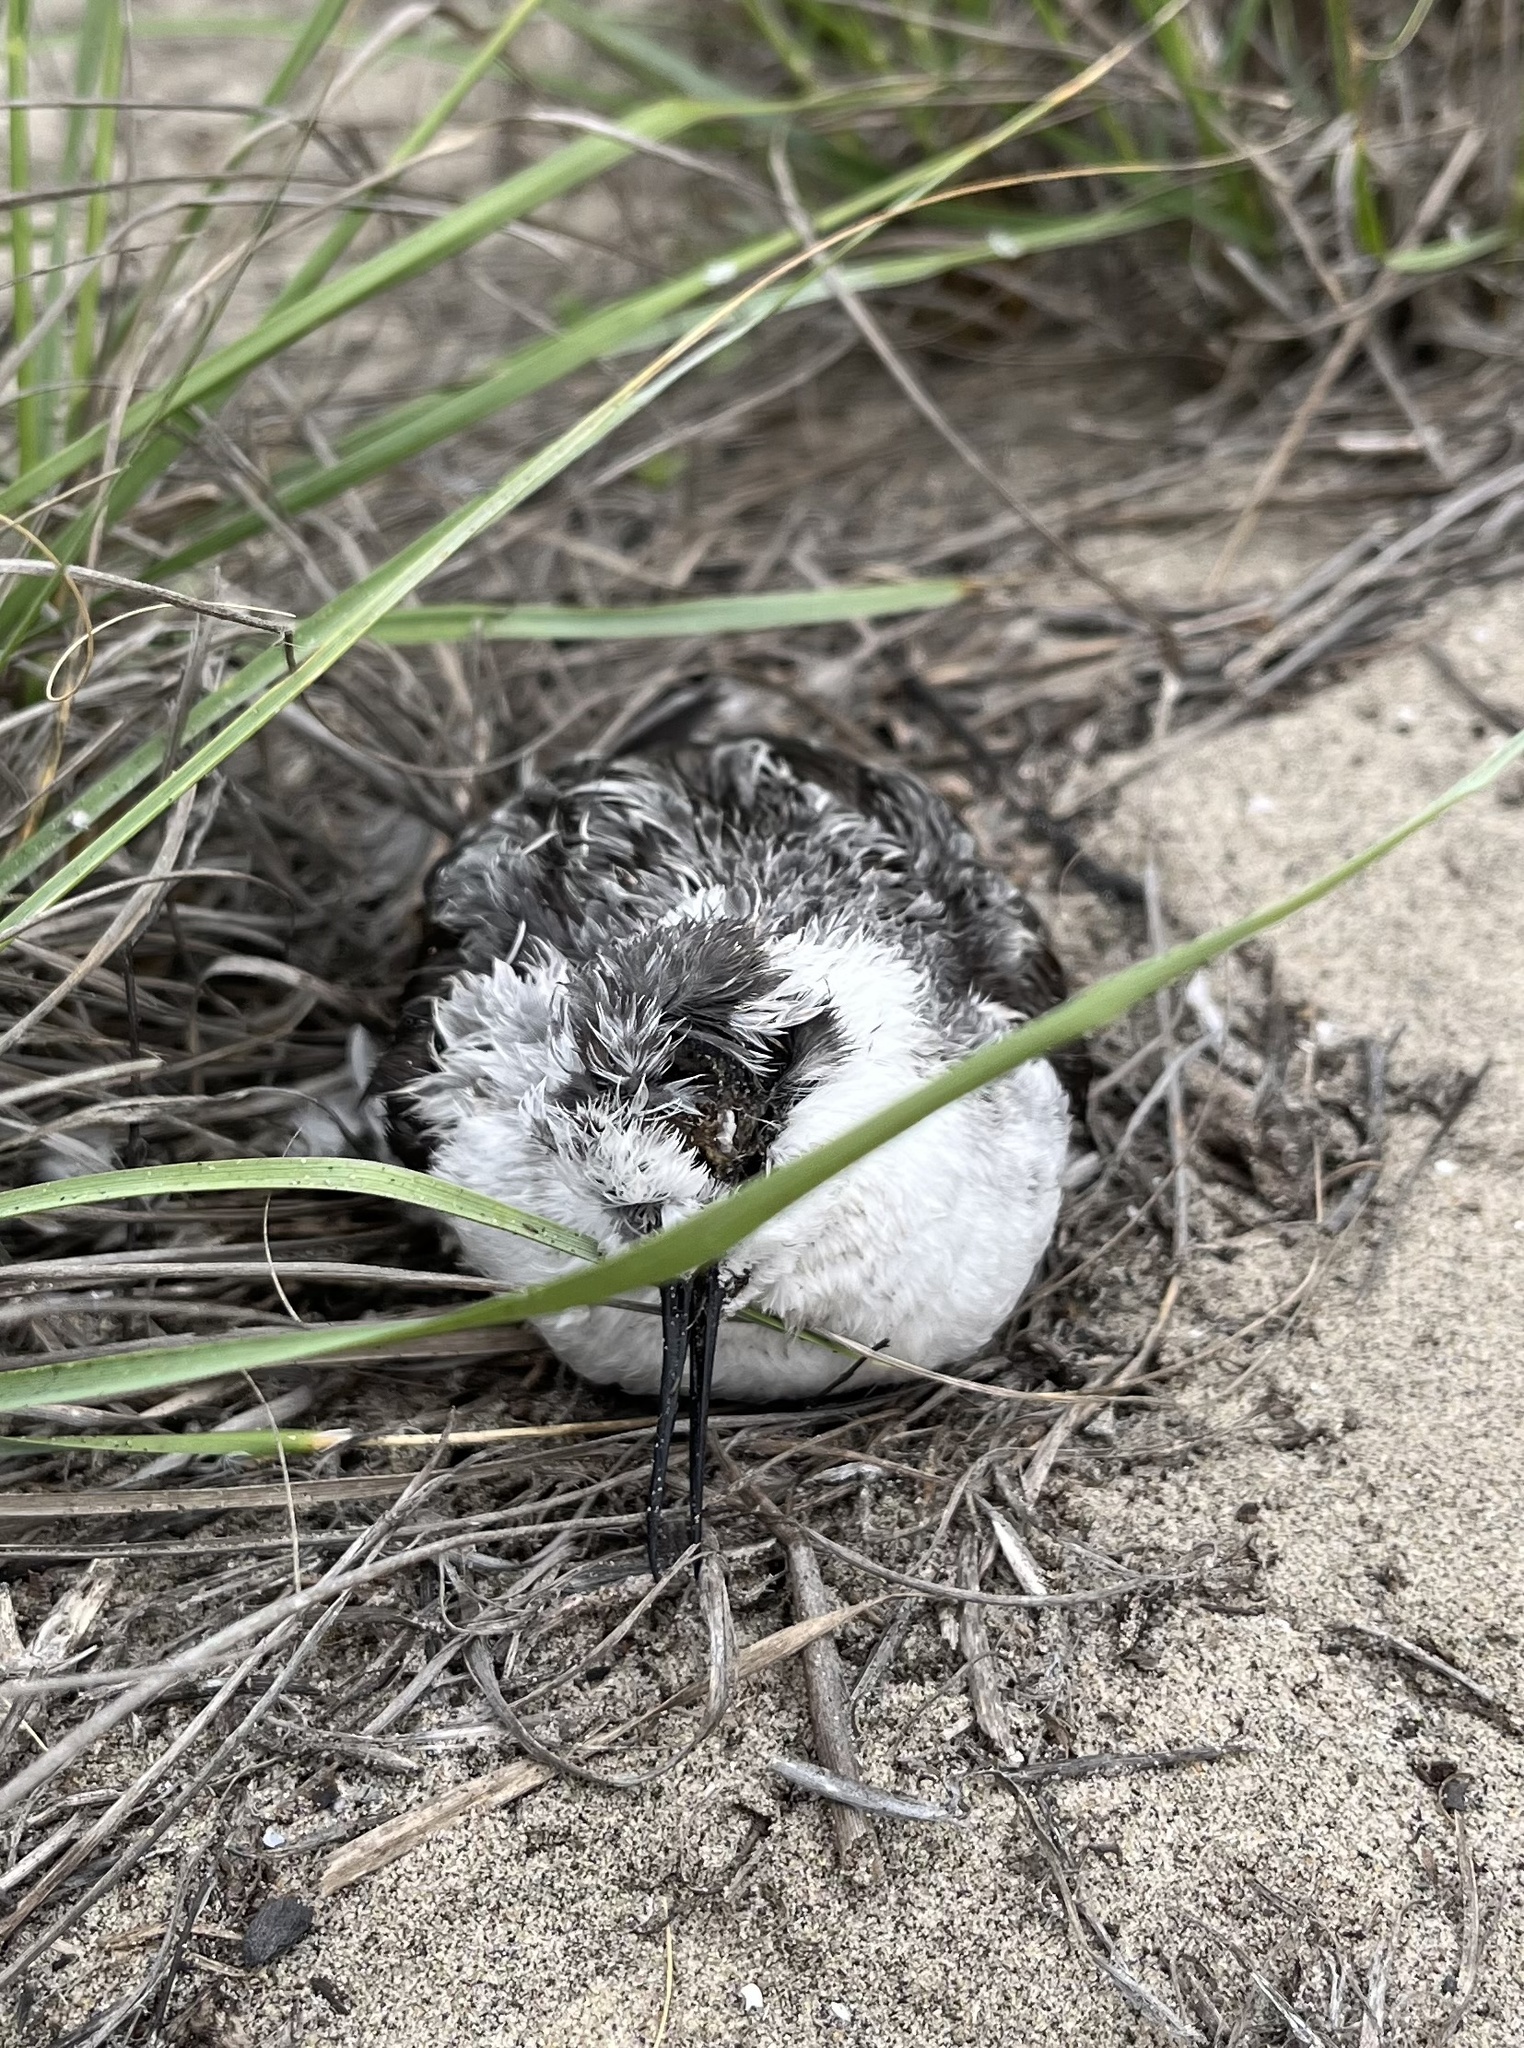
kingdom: Animalia
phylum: Chordata
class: Aves
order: Charadriiformes
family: Scolopacidae
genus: Phalaropus
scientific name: Phalaropus lobatus
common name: Red-necked phalarope
